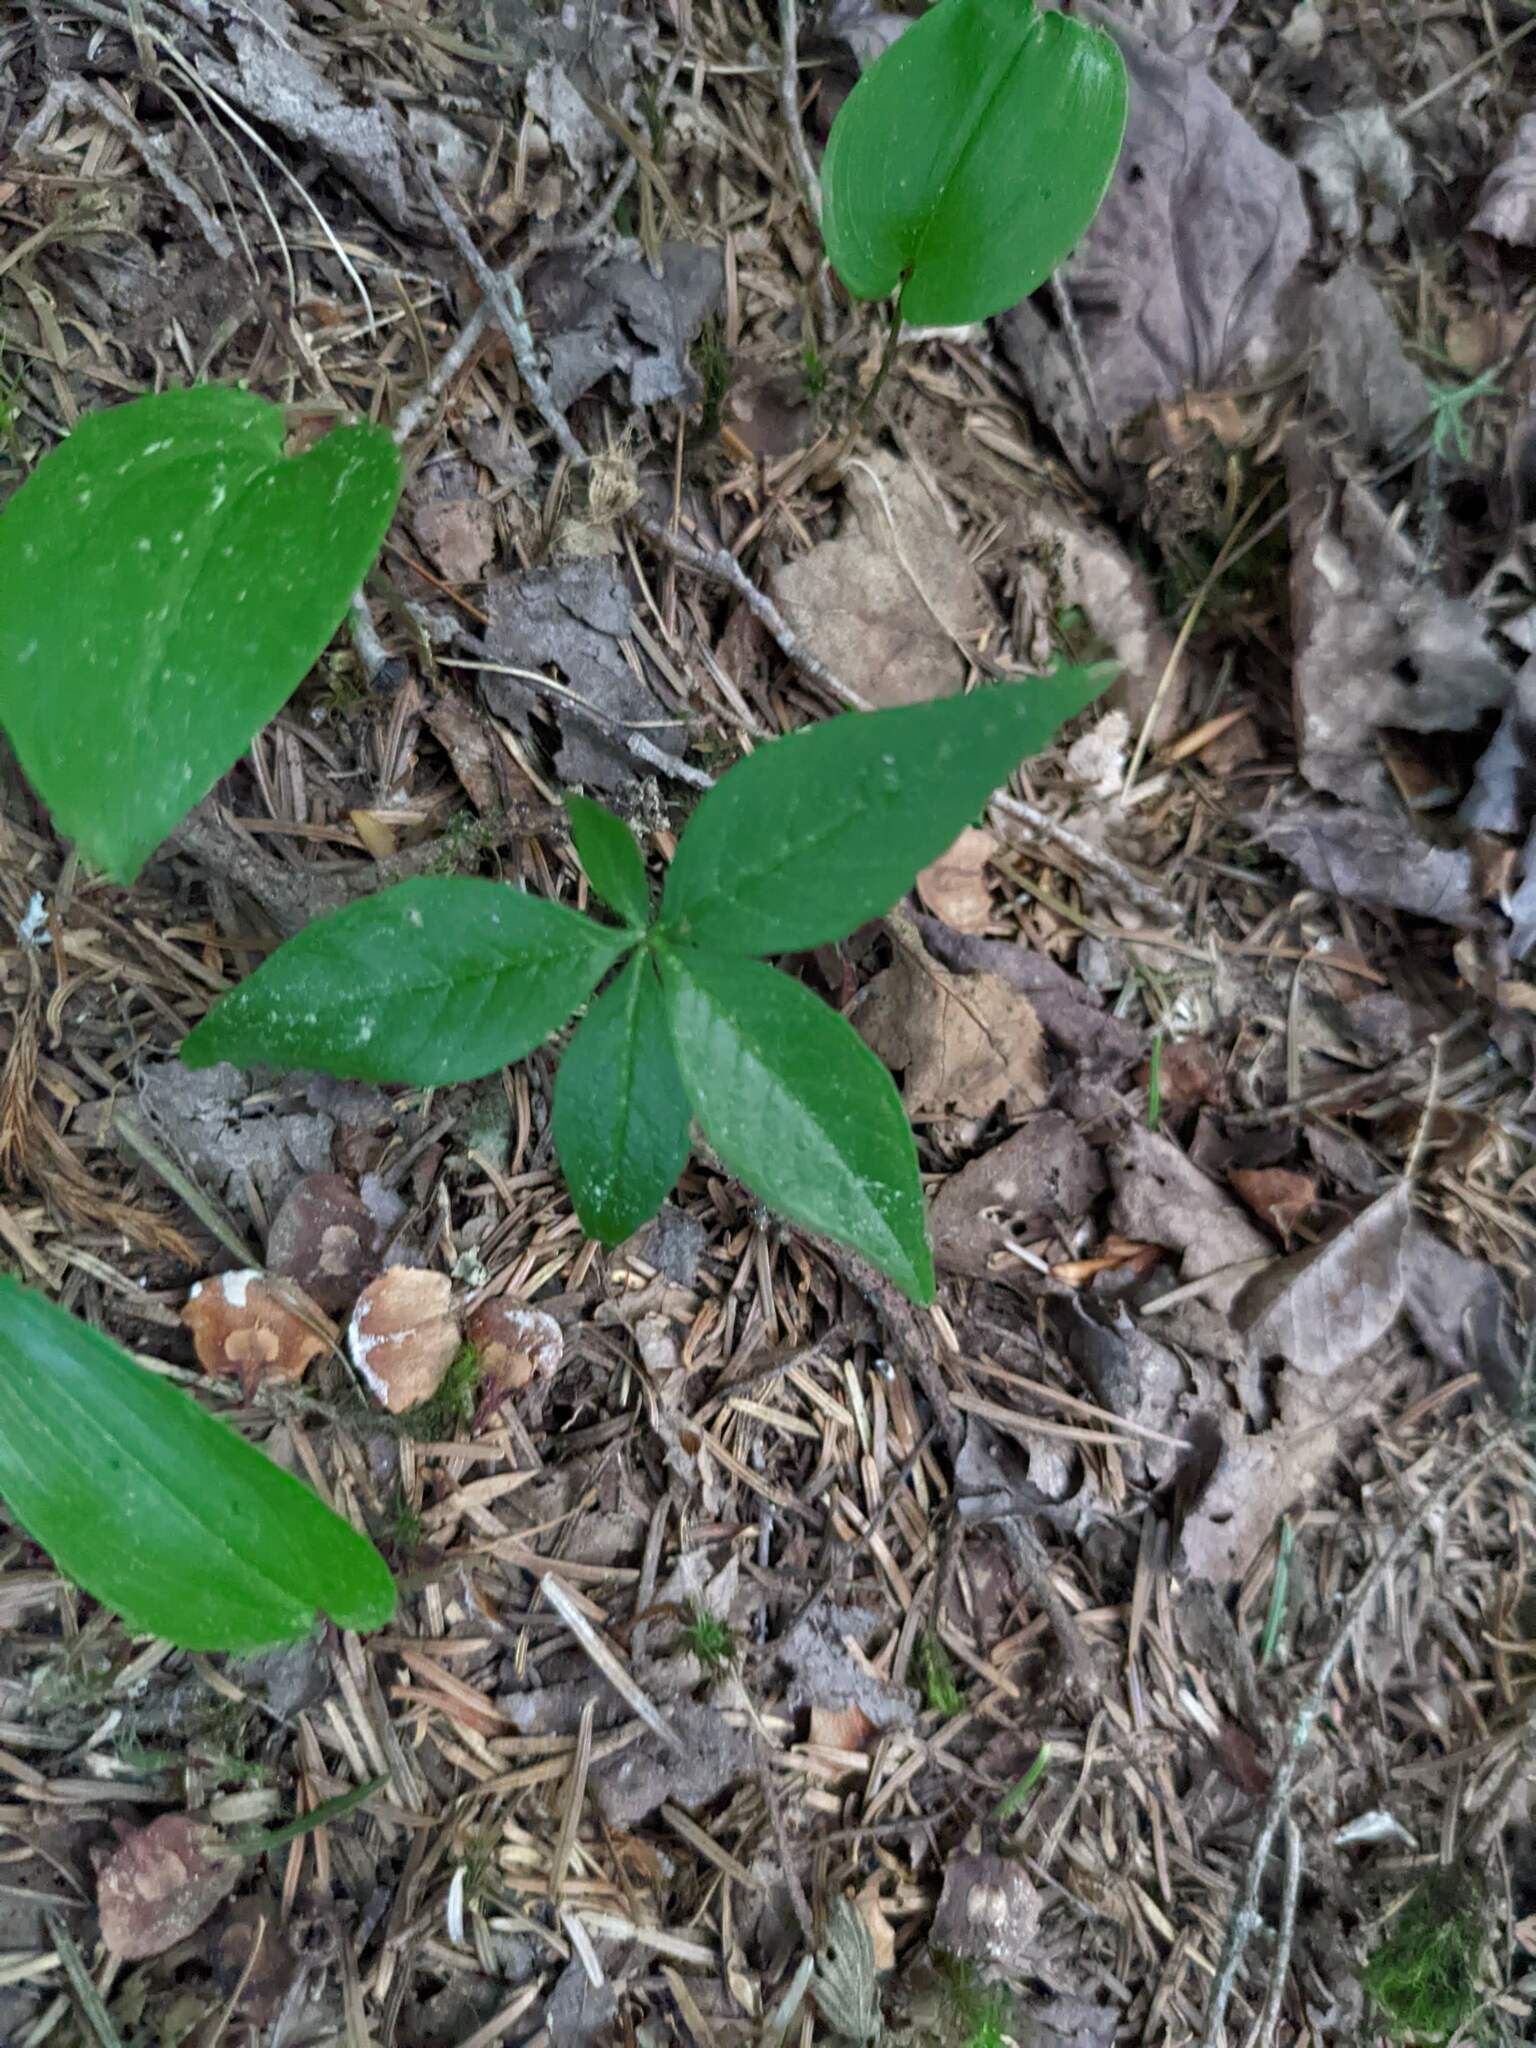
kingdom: Plantae
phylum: Tracheophyta
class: Magnoliopsida
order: Ericales
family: Primulaceae
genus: Lysimachia
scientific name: Lysimachia borealis
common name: American starflower
